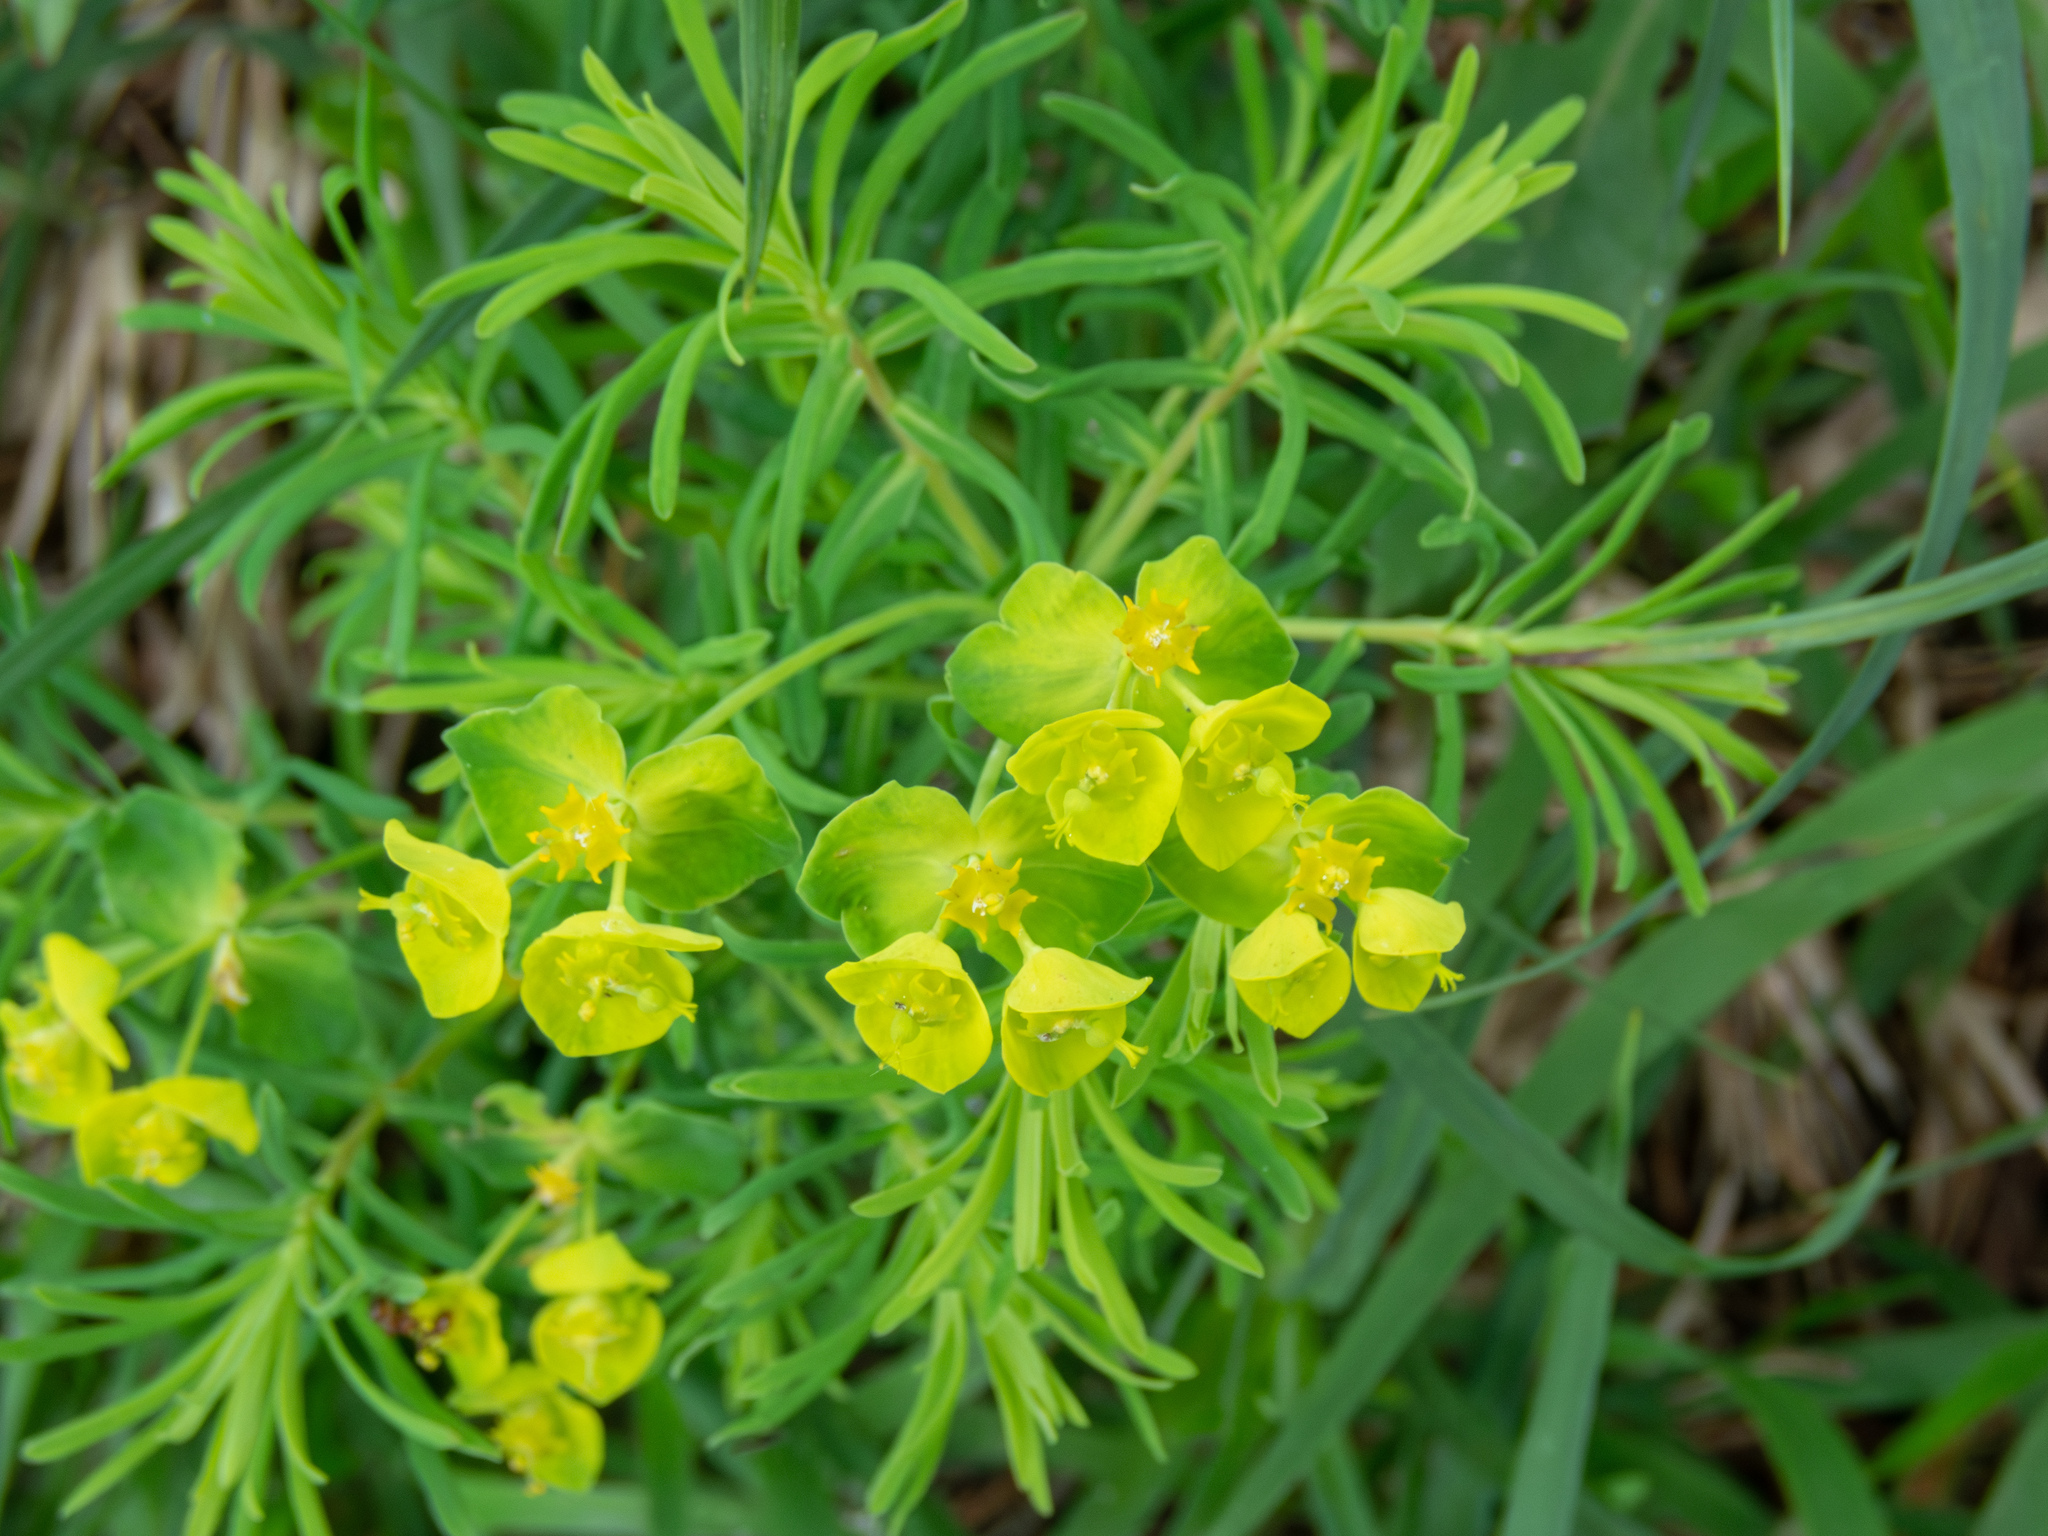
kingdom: Plantae
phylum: Tracheophyta
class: Magnoliopsida
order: Malpighiales
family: Euphorbiaceae
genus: Euphorbia
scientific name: Euphorbia cyparissias
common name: Cypress spurge
